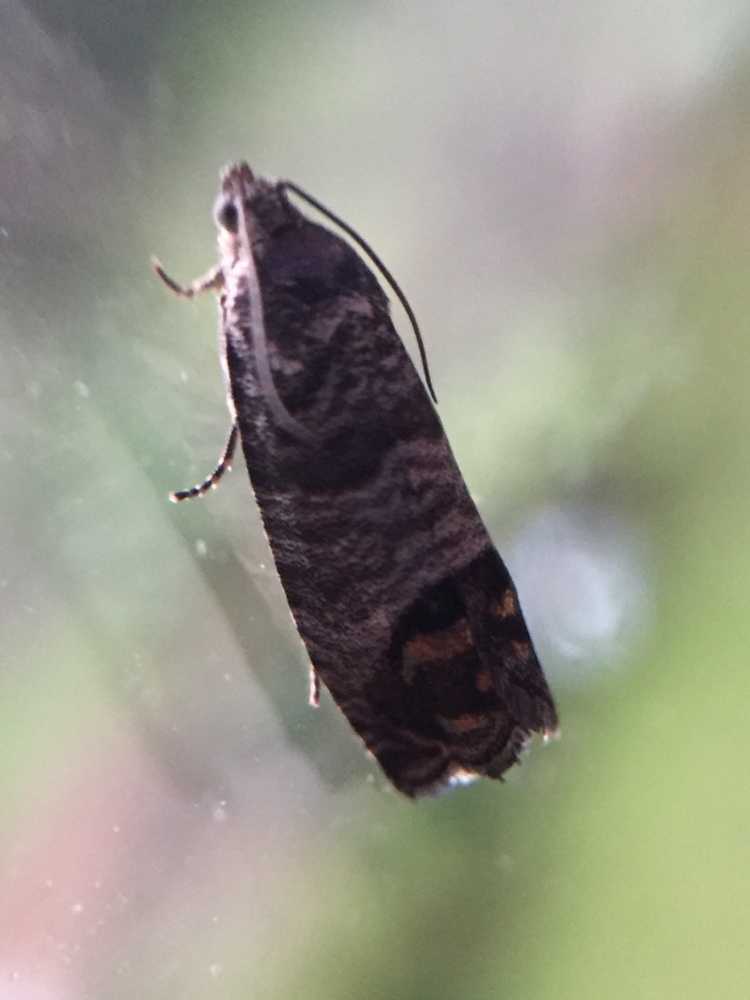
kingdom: Animalia
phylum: Arthropoda
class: Insecta
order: Lepidoptera
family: Tortricidae
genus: Cydia
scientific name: Cydia pomonella
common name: Codling moth
